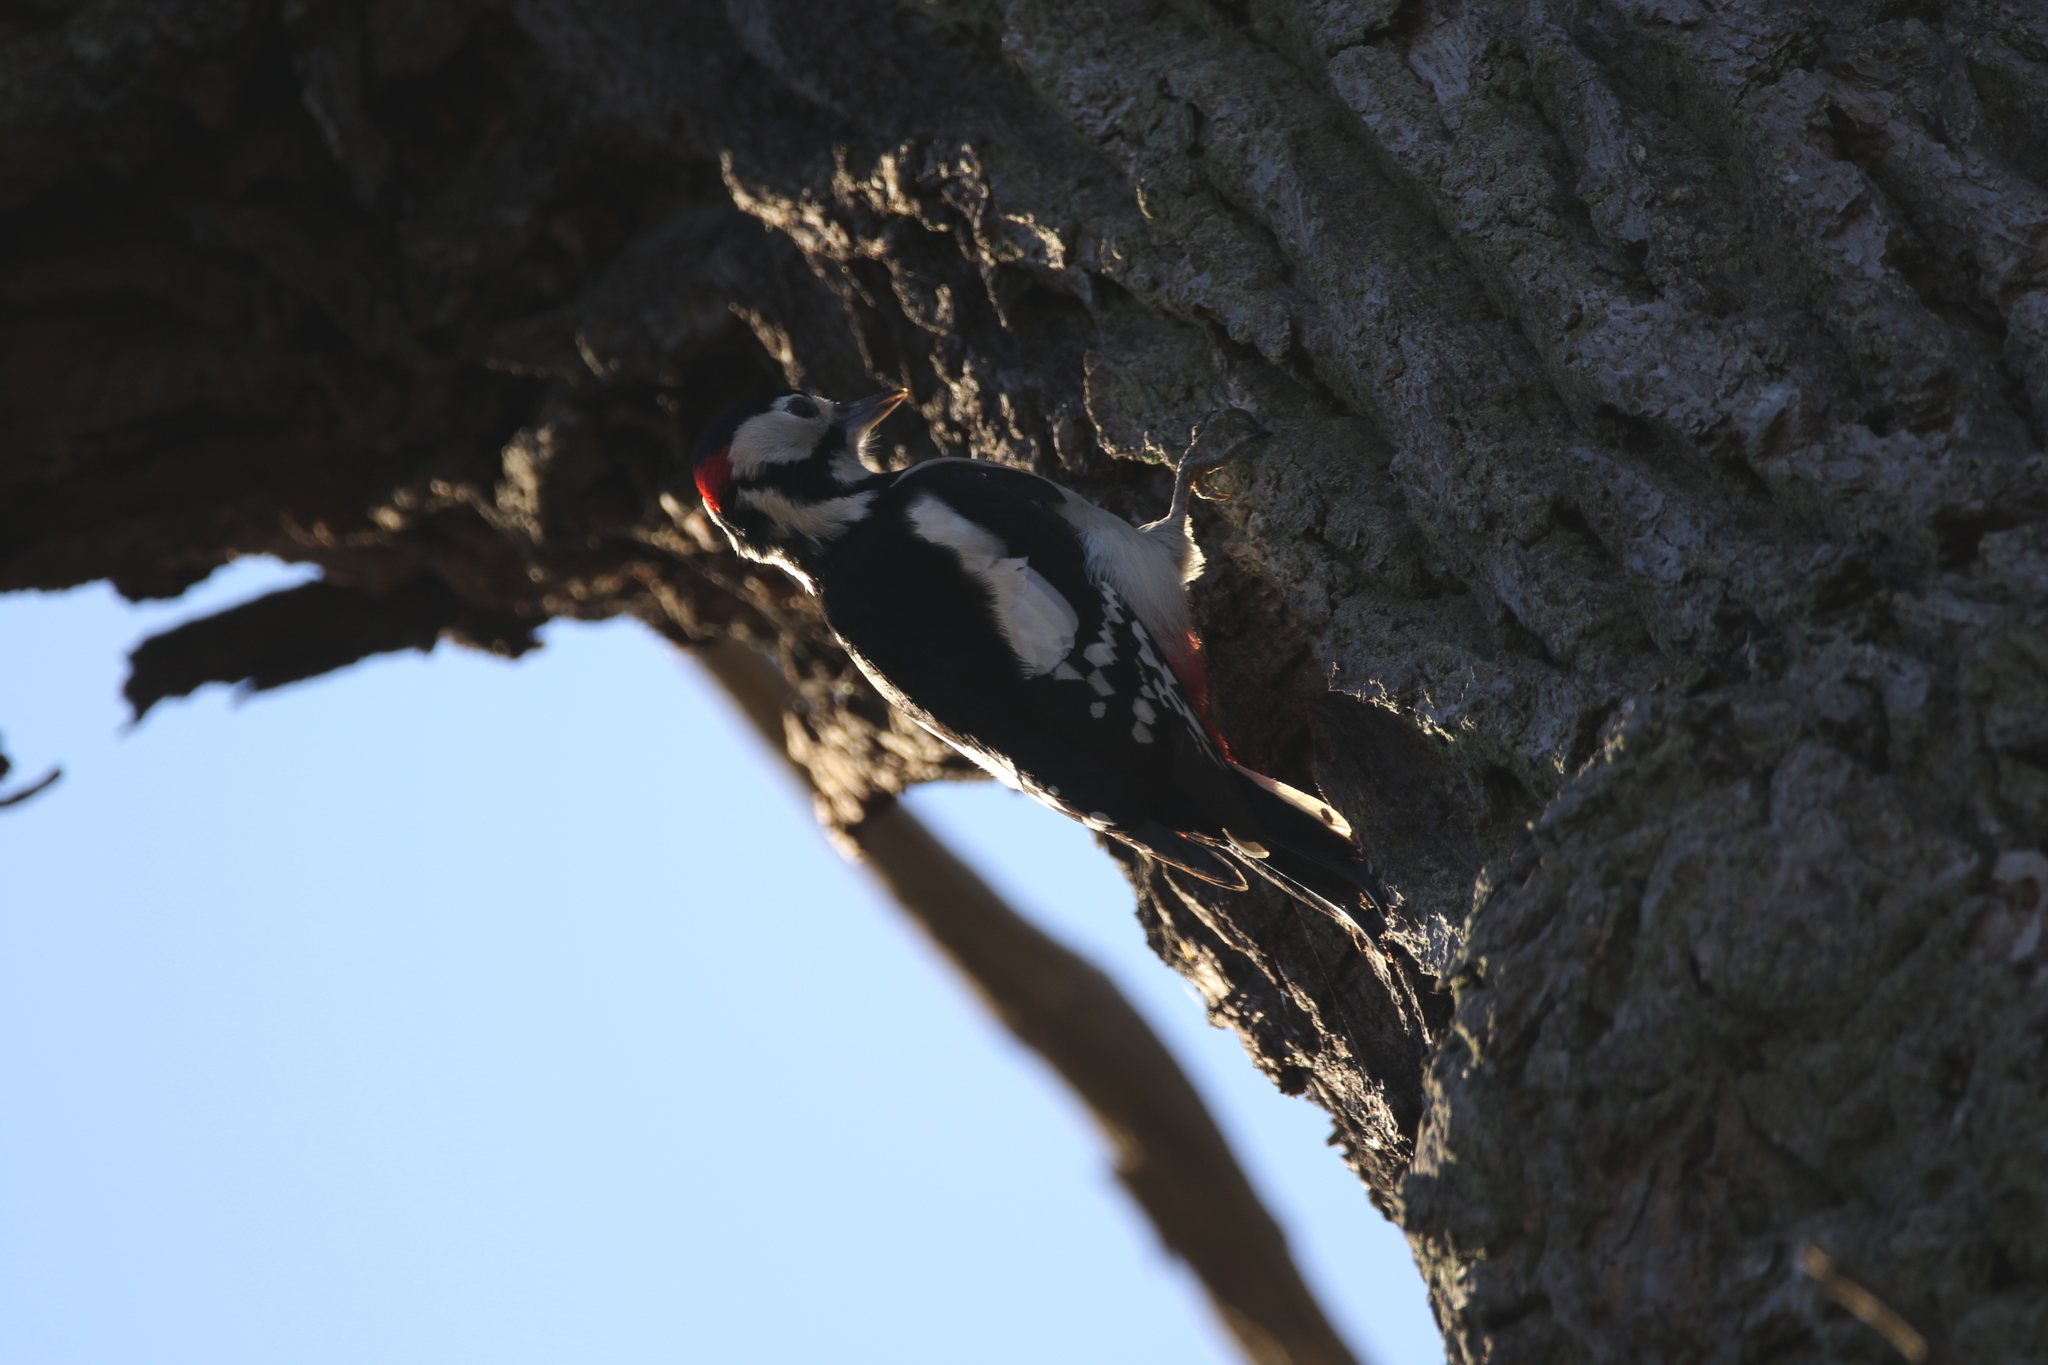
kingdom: Animalia
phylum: Chordata
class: Aves
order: Piciformes
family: Picidae
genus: Dendrocopos
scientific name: Dendrocopos major
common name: Great spotted woodpecker
